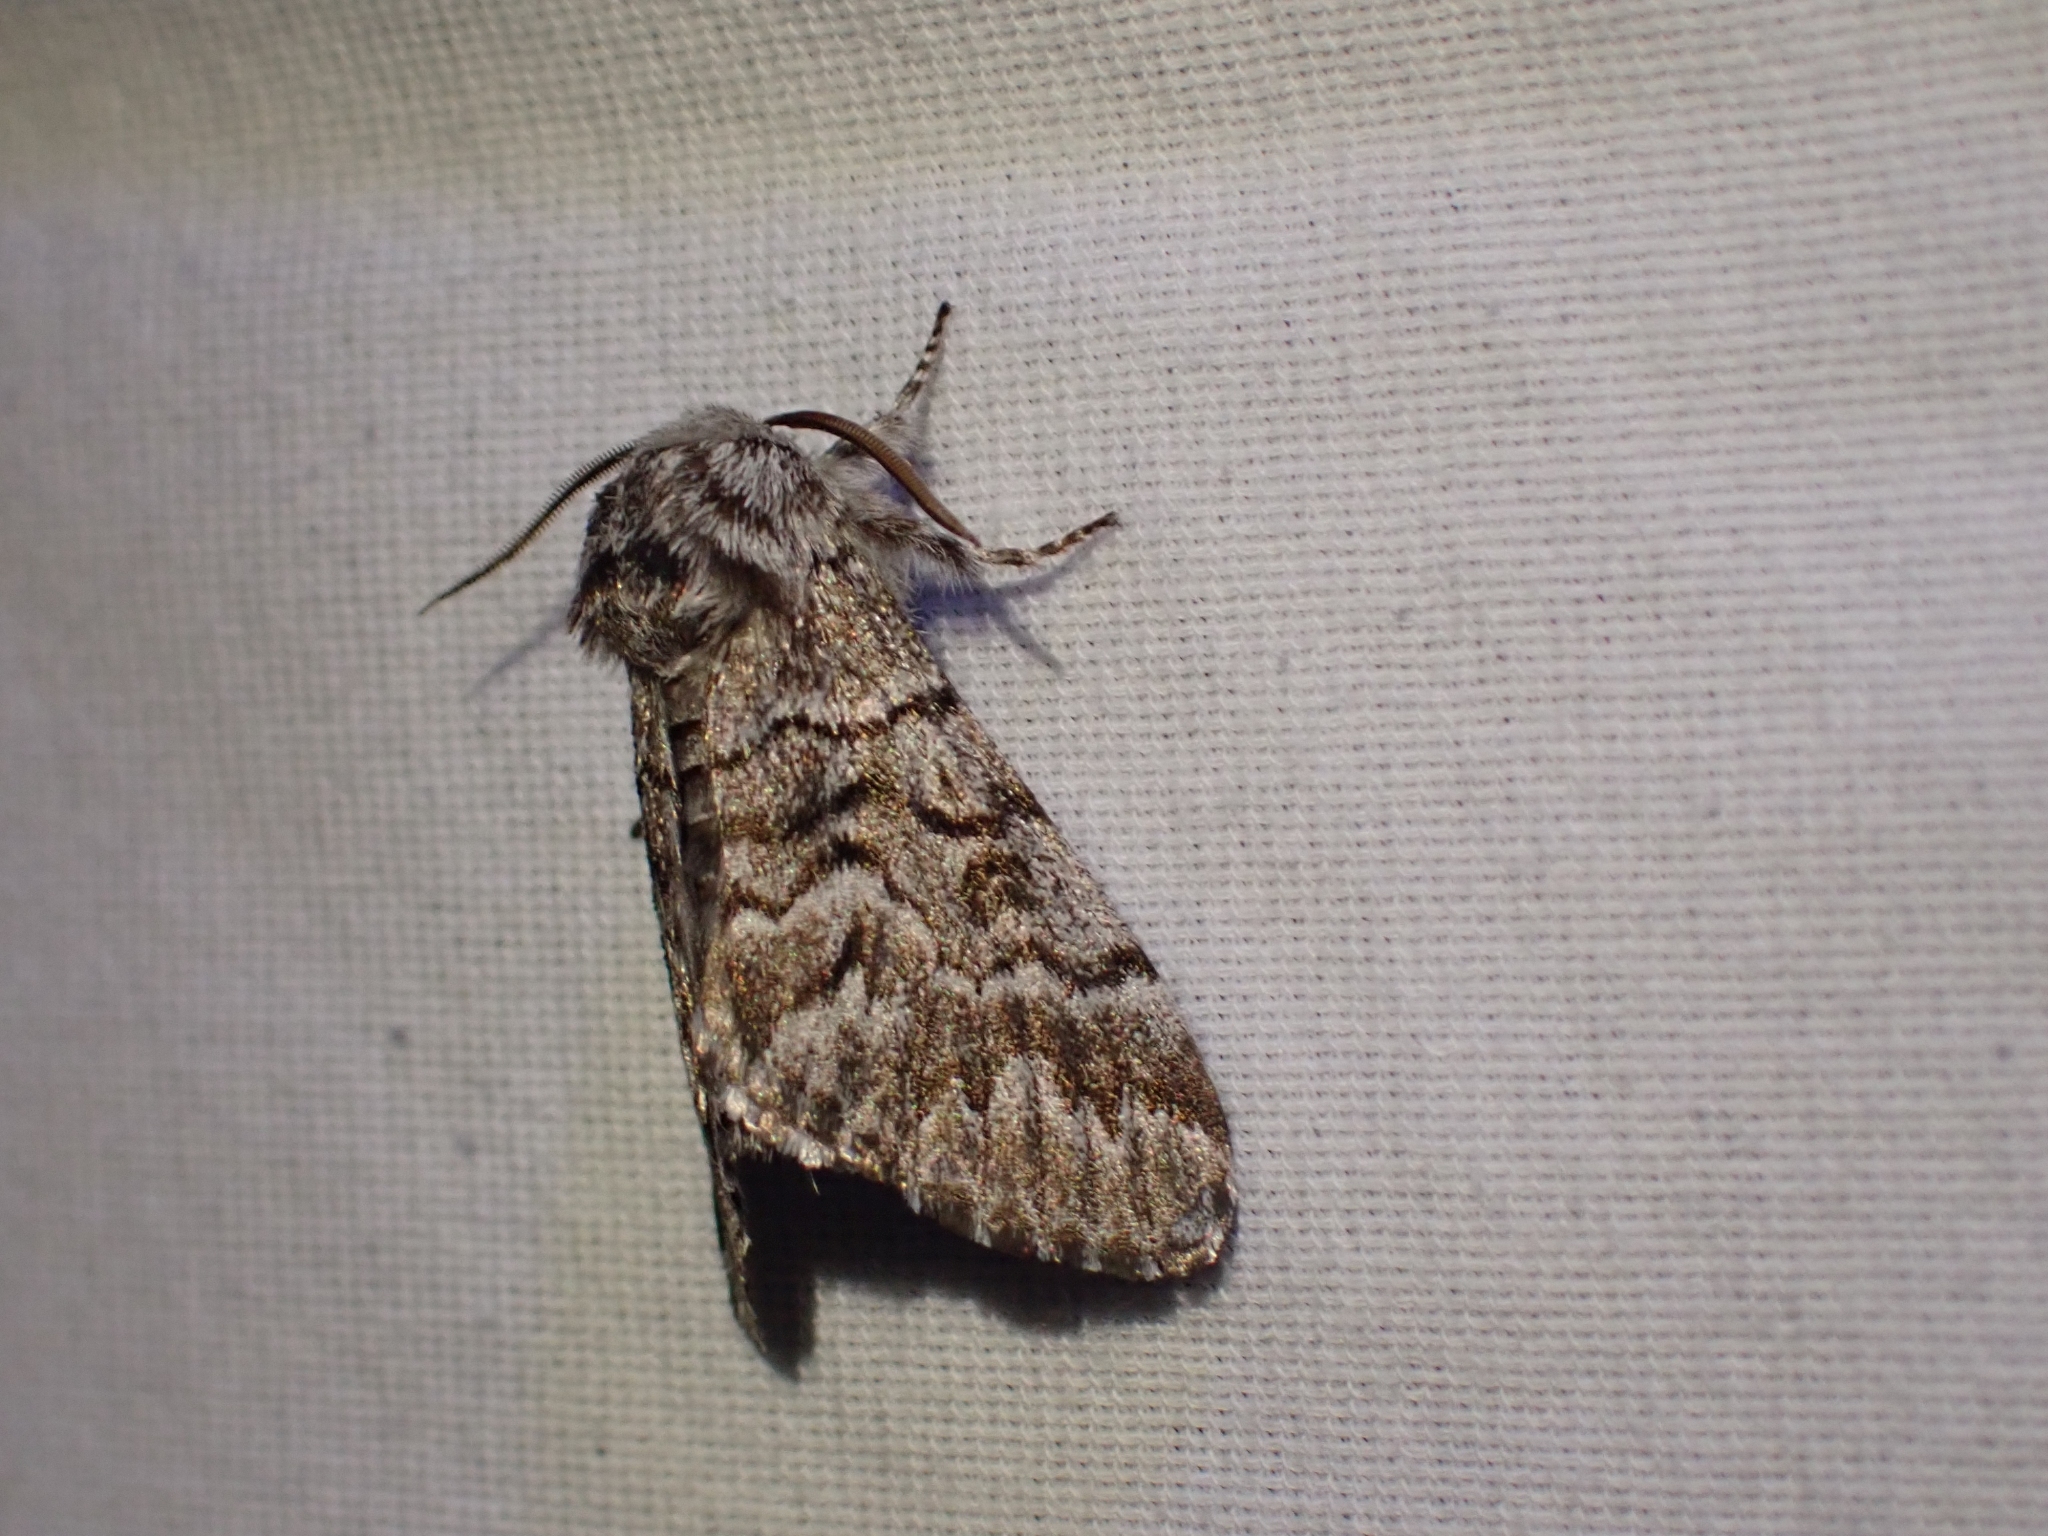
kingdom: Animalia
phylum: Arthropoda
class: Insecta
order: Lepidoptera
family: Noctuidae
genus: Panthea
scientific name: Panthea virginarius
